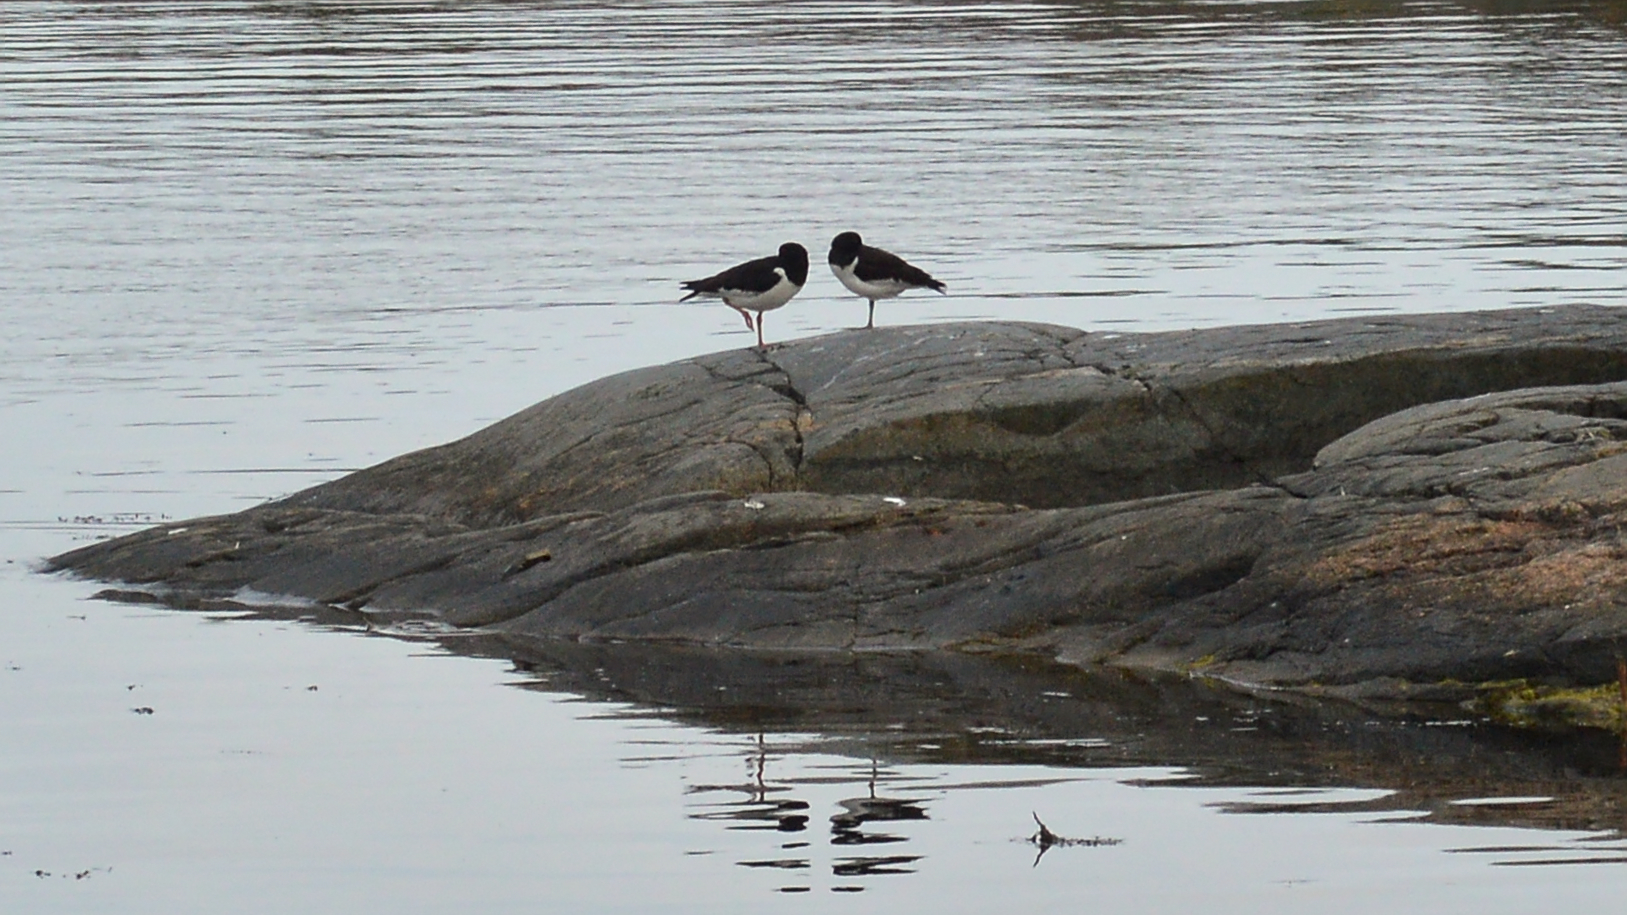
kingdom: Animalia
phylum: Chordata
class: Aves
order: Charadriiformes
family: Haematopodidae
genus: Haematopus
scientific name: Haematopus ostralegus
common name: Eurasian oystercatcher
